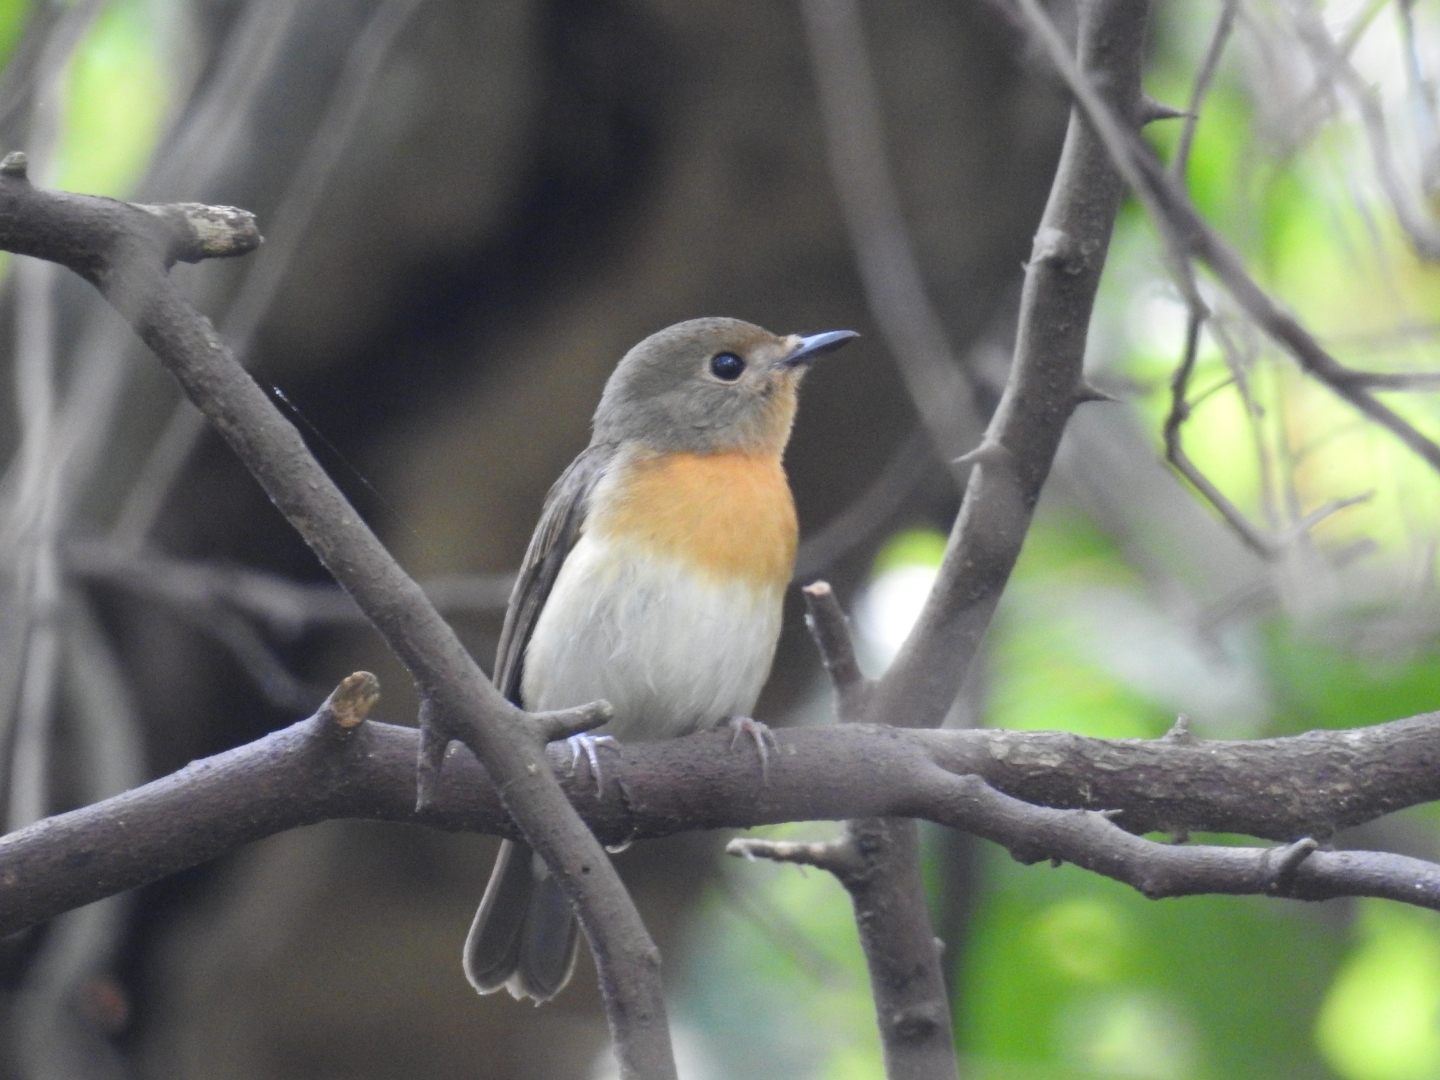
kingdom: Animalia
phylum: Chordata
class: Aves
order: Passeriformes
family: Muscicapidae
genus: Cyornis
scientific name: Cyornis rubeculoides
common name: Blue-throated blue flycatcher
